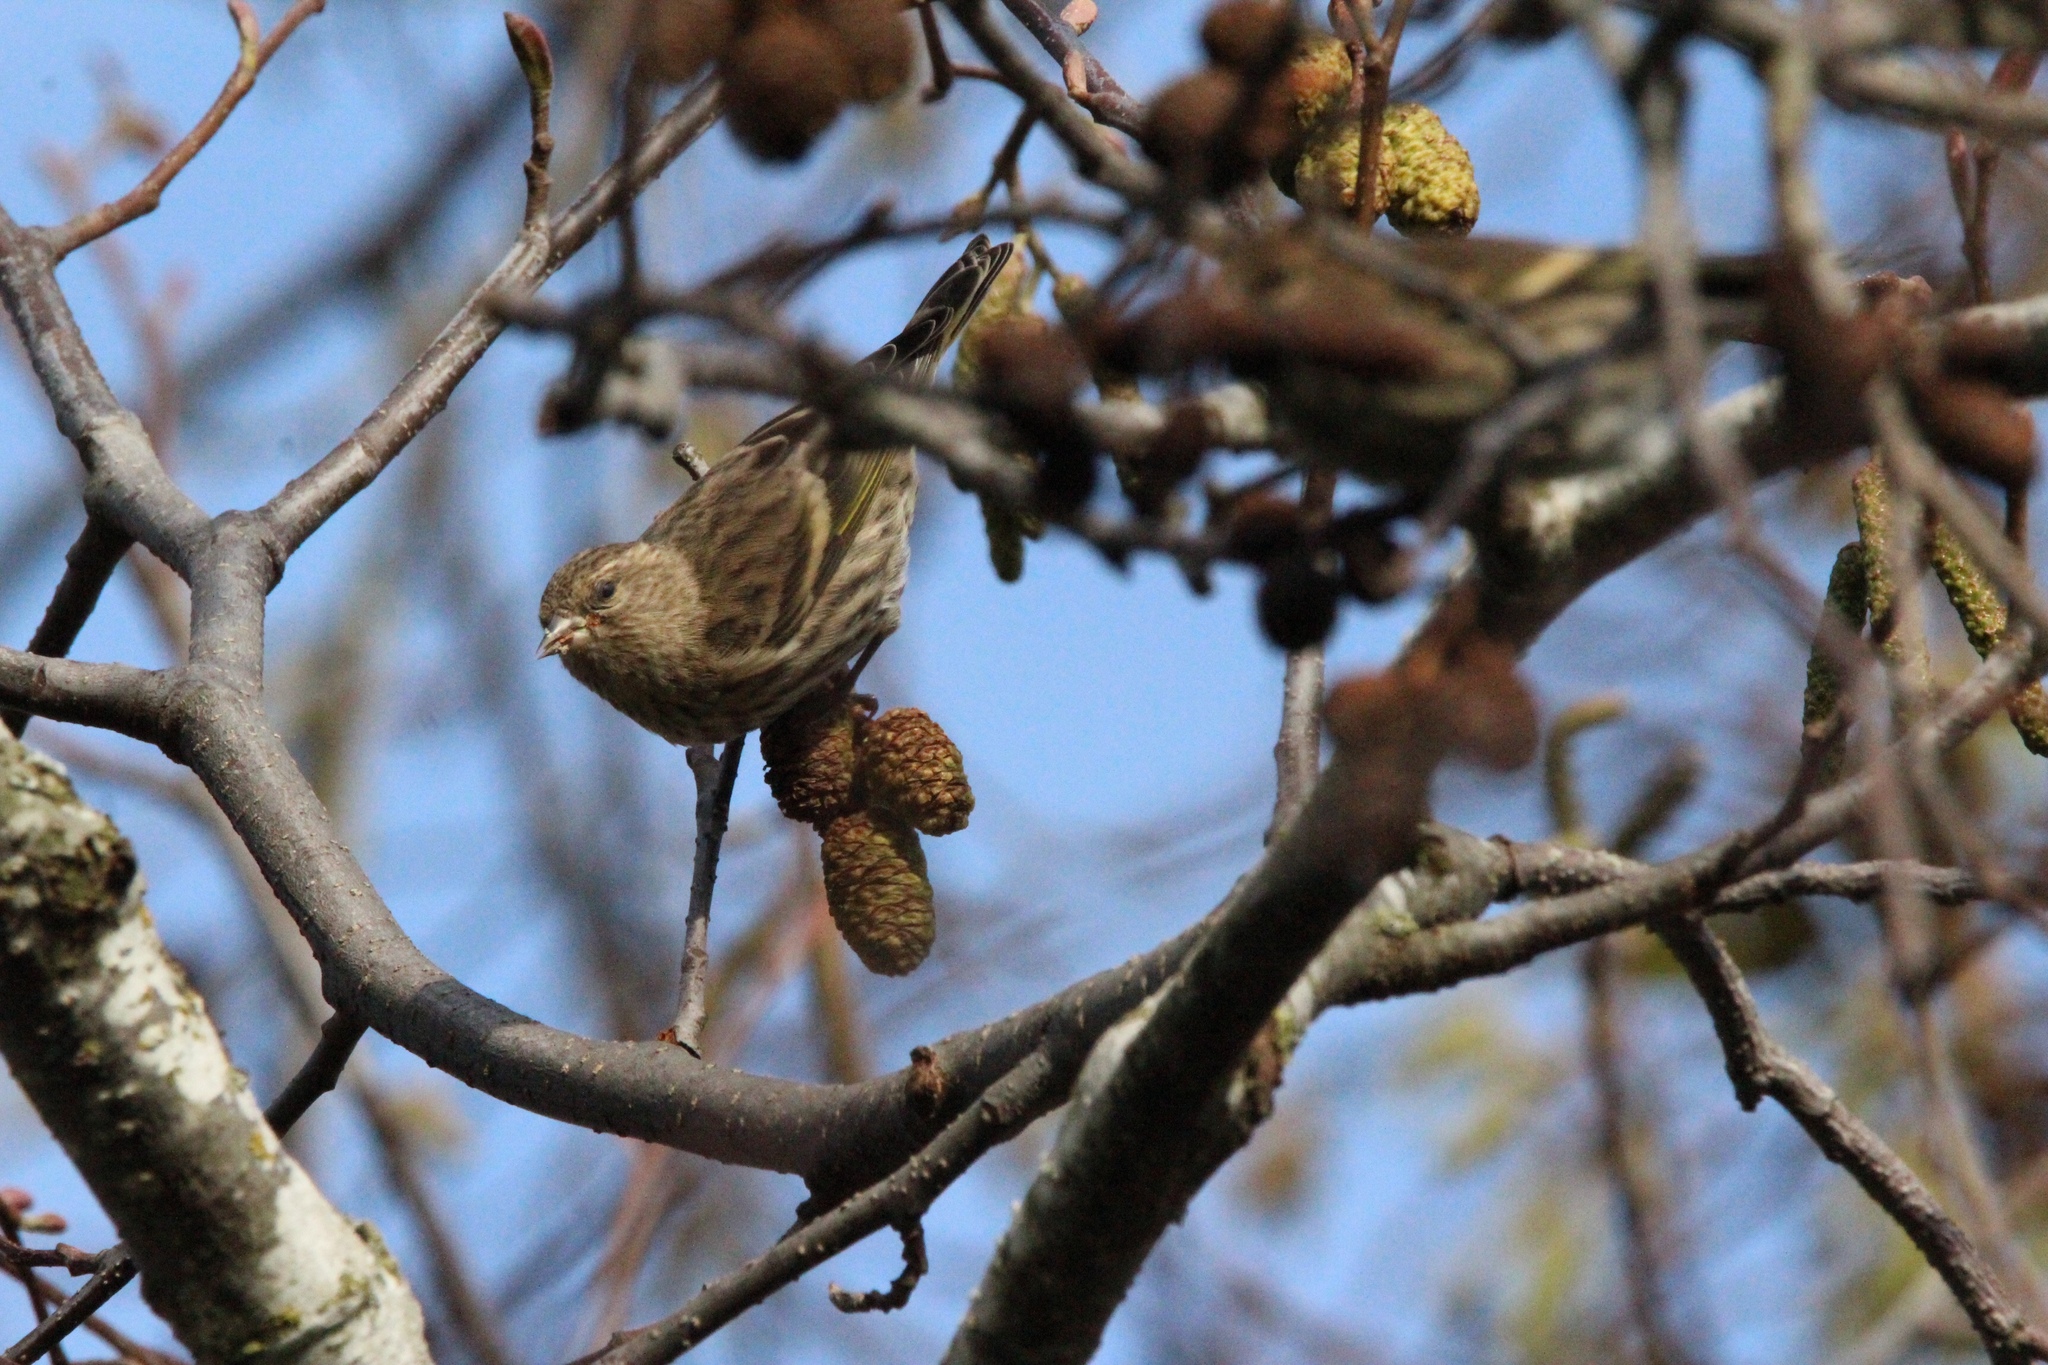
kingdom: Animalia
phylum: Chordata
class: Aves
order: Passeriformes
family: Fringillidae
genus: Spinus
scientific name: Spinus pinus
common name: Pine siskin
